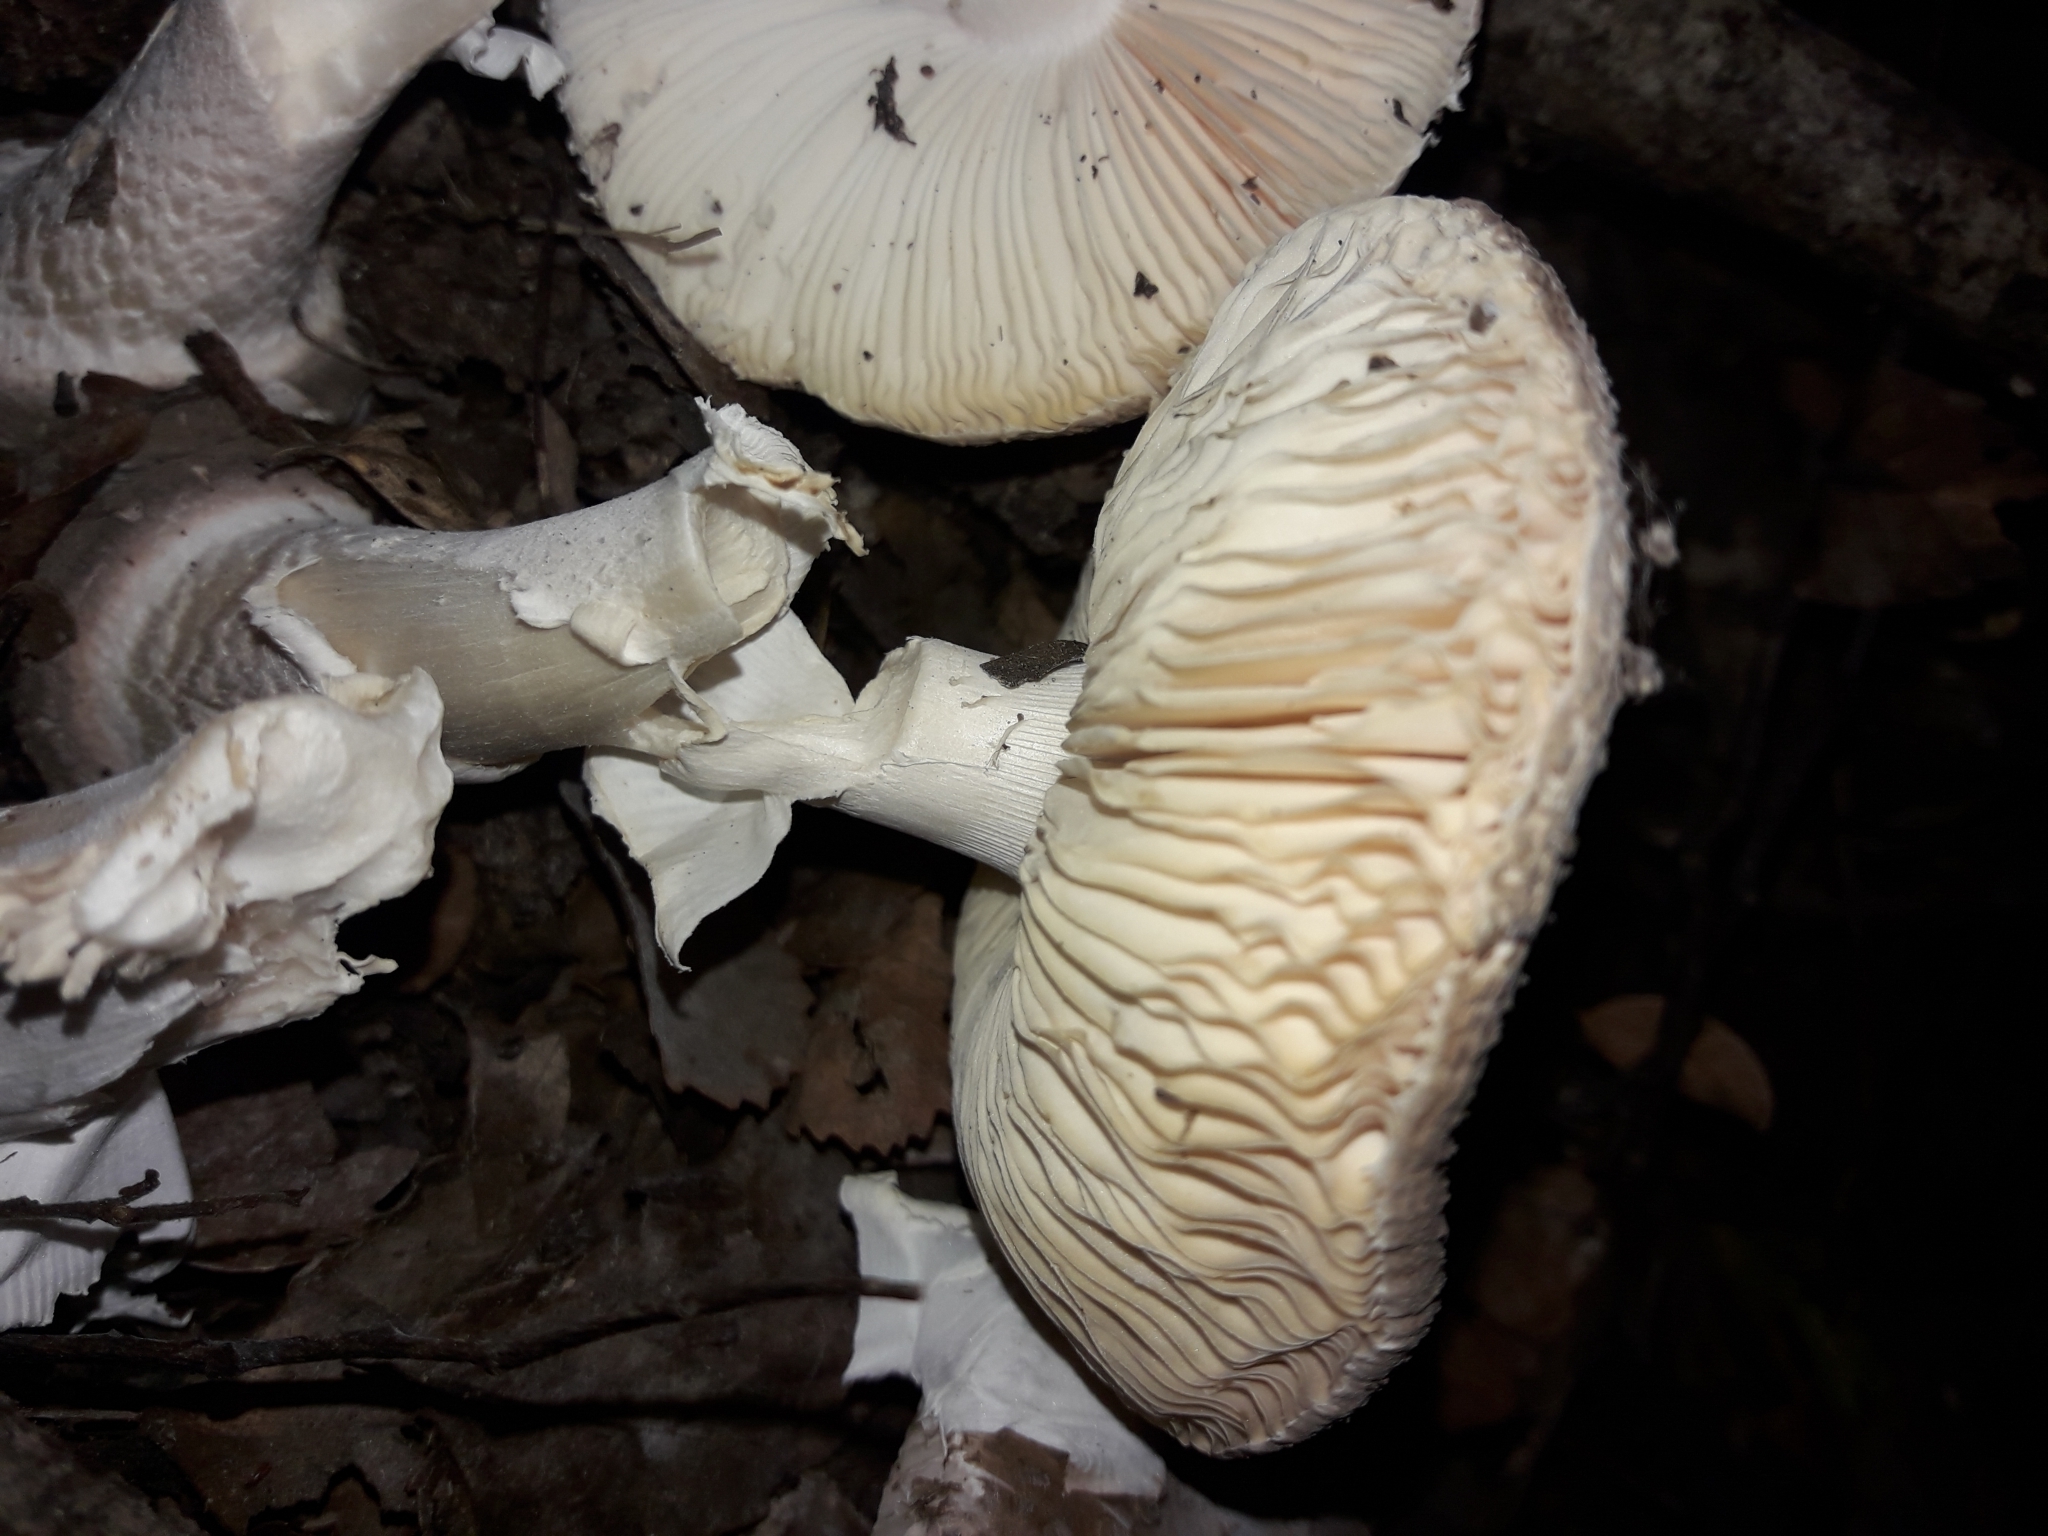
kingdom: Fungi
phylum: Basidiomycota
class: Agaricomycetes
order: Agaricales
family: Amanitaceae
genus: Amanita
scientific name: Amanita australis
